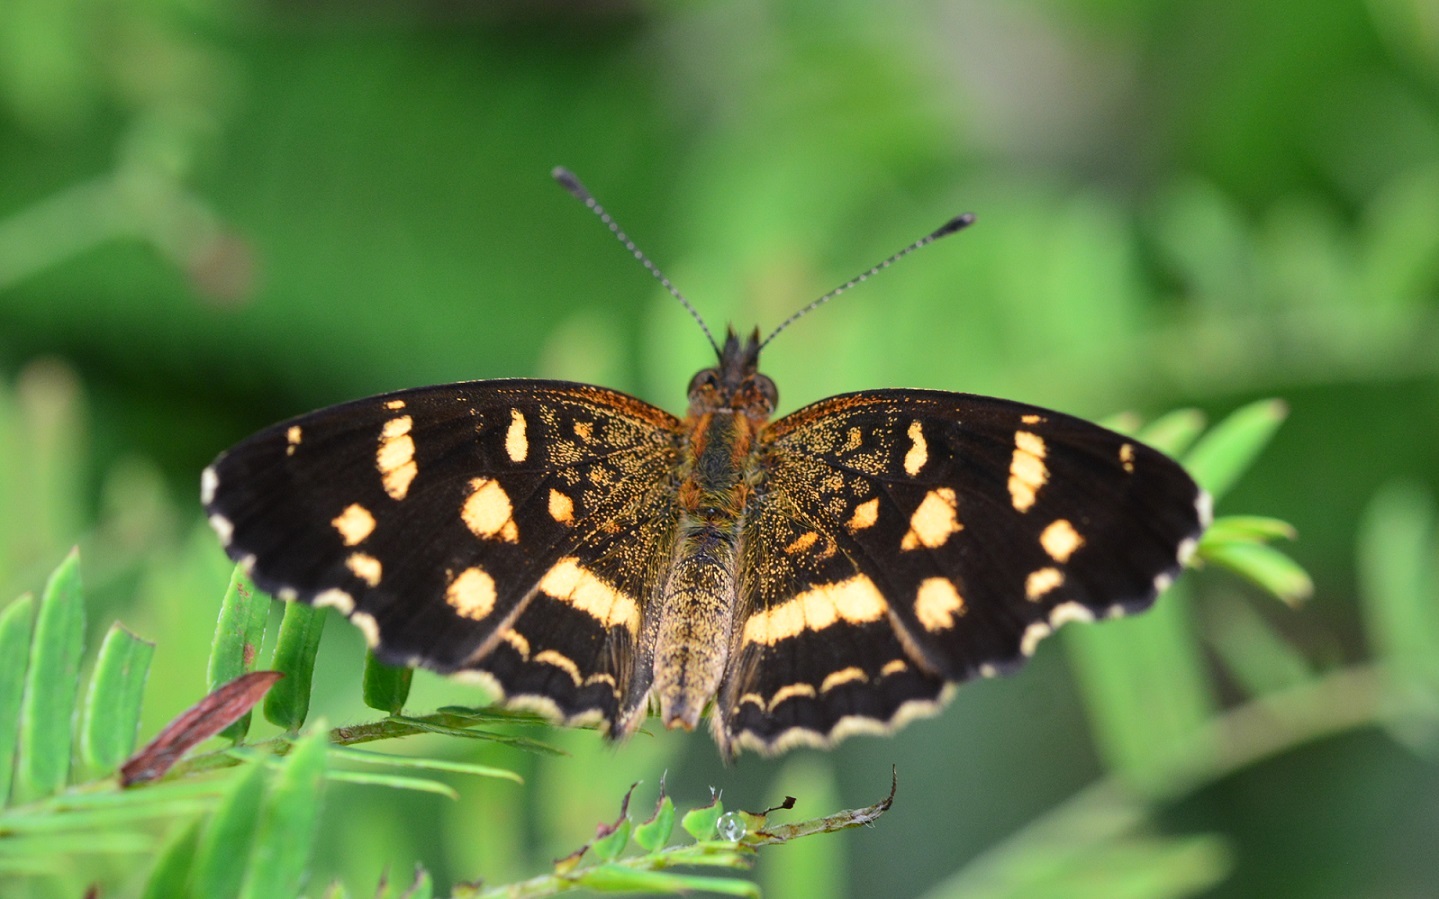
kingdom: Animalia
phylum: Arthropoda
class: Insecta
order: Lepidoptera
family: Nymphalidae
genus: Anthanassa
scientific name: Anthanassa tulcis
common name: Pale-banded crescent
